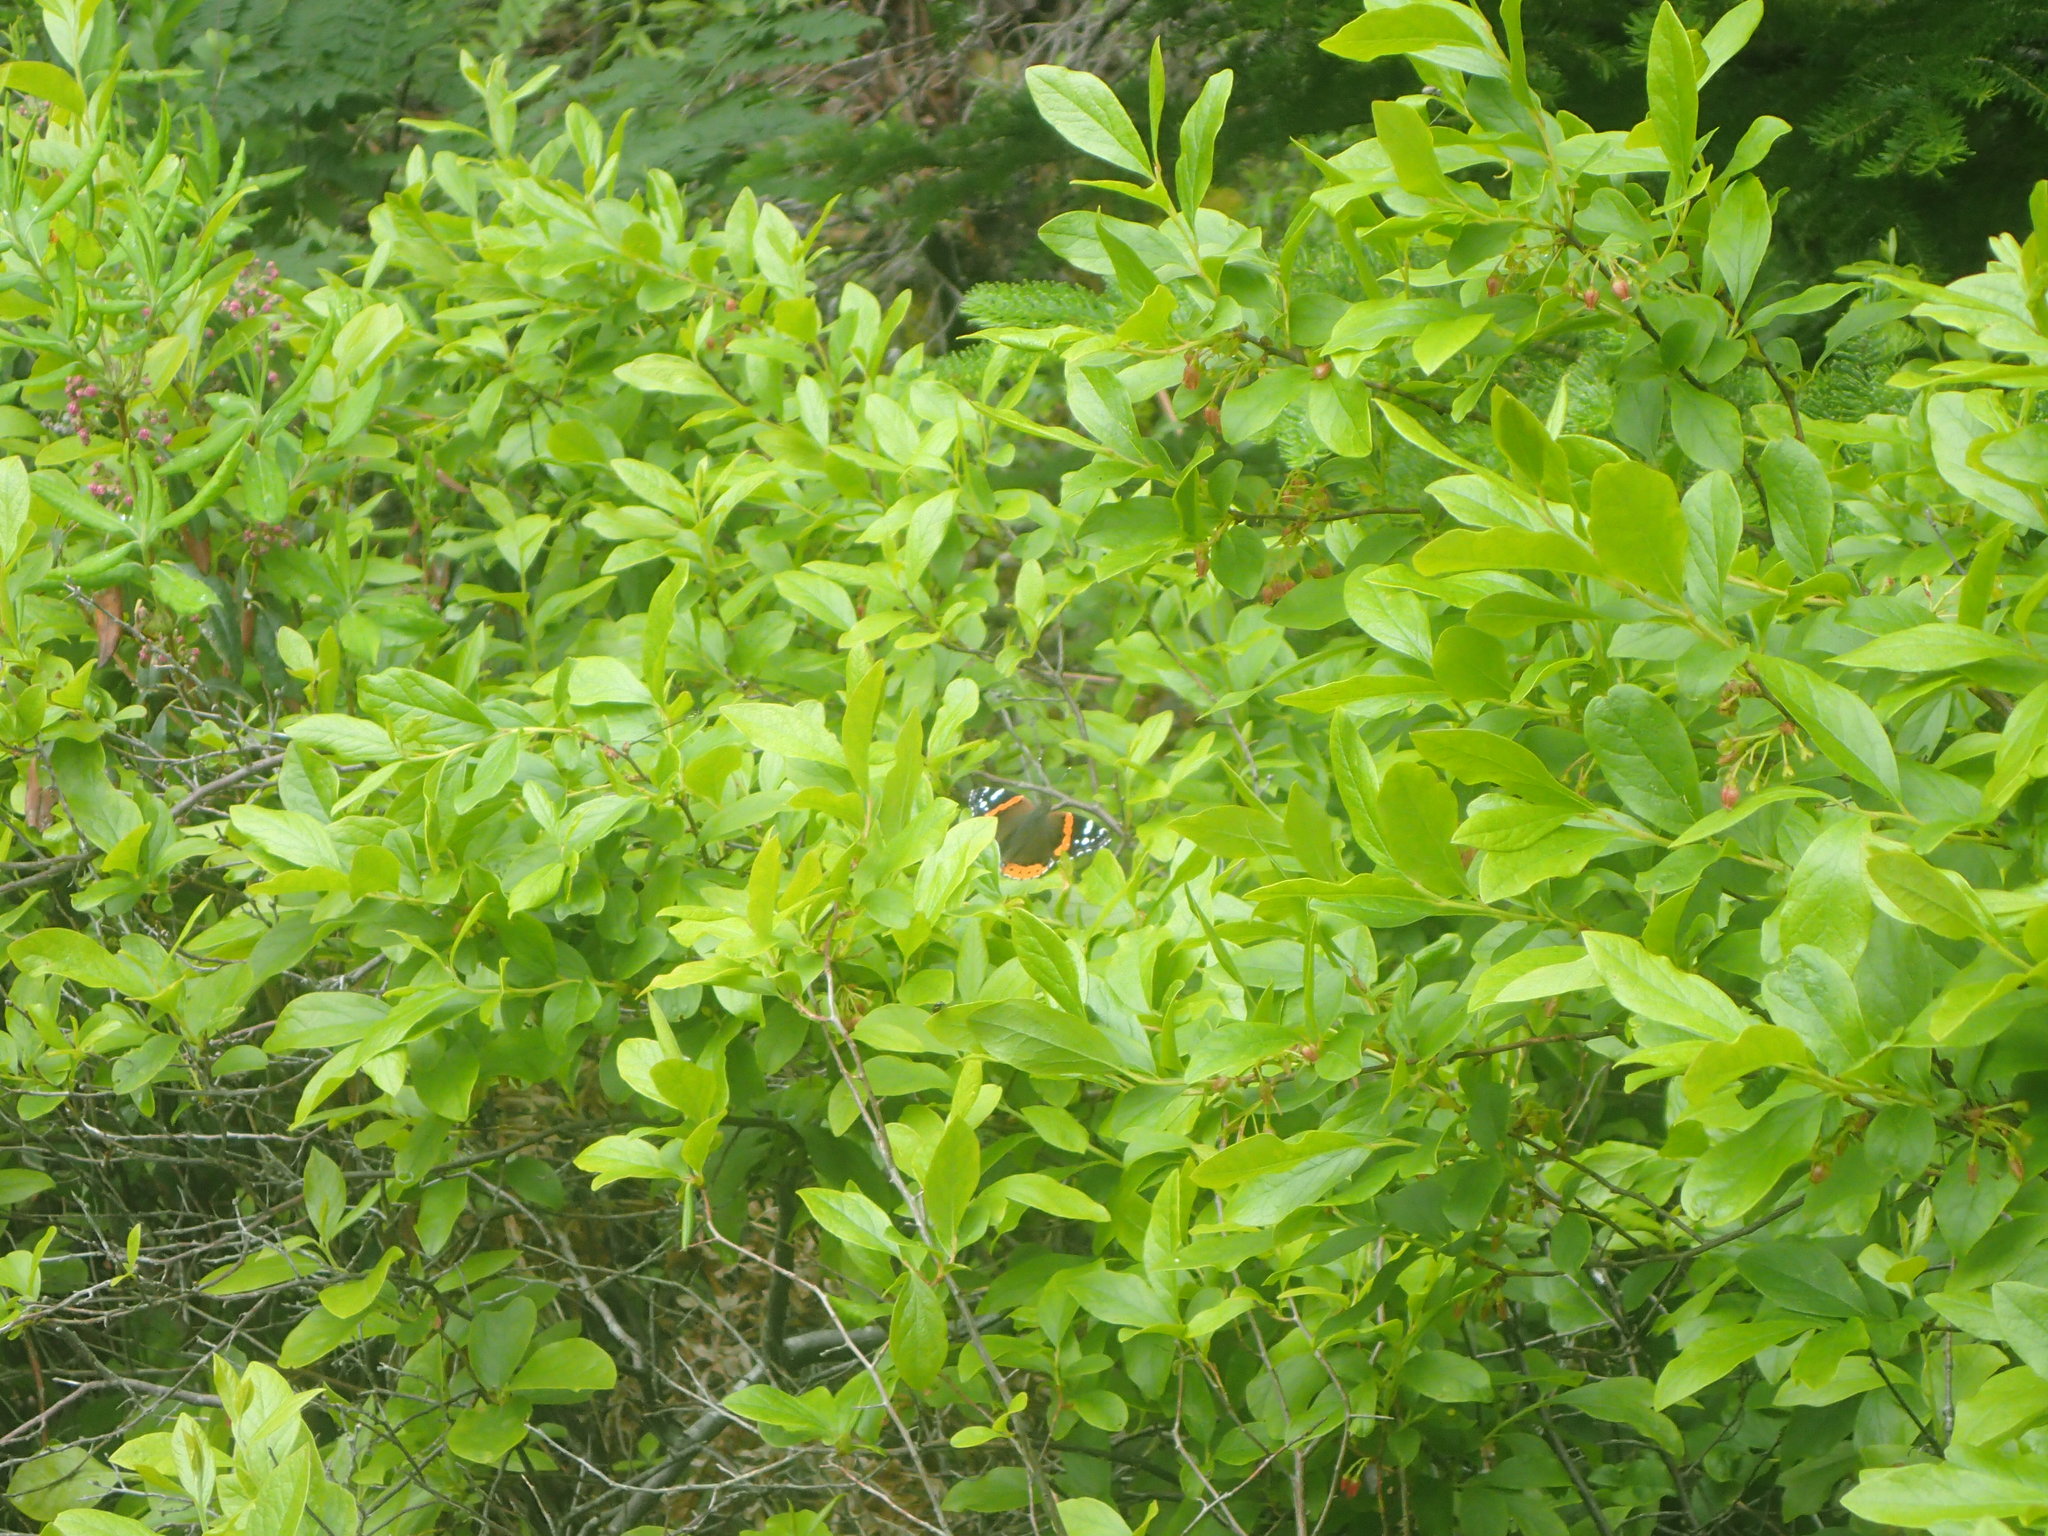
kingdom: Animalia
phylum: Arthropoda
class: Insecta
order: Lepidoptera
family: Nymphalidae
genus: Vanessa
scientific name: Vanessa atalanta
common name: Red admiral
